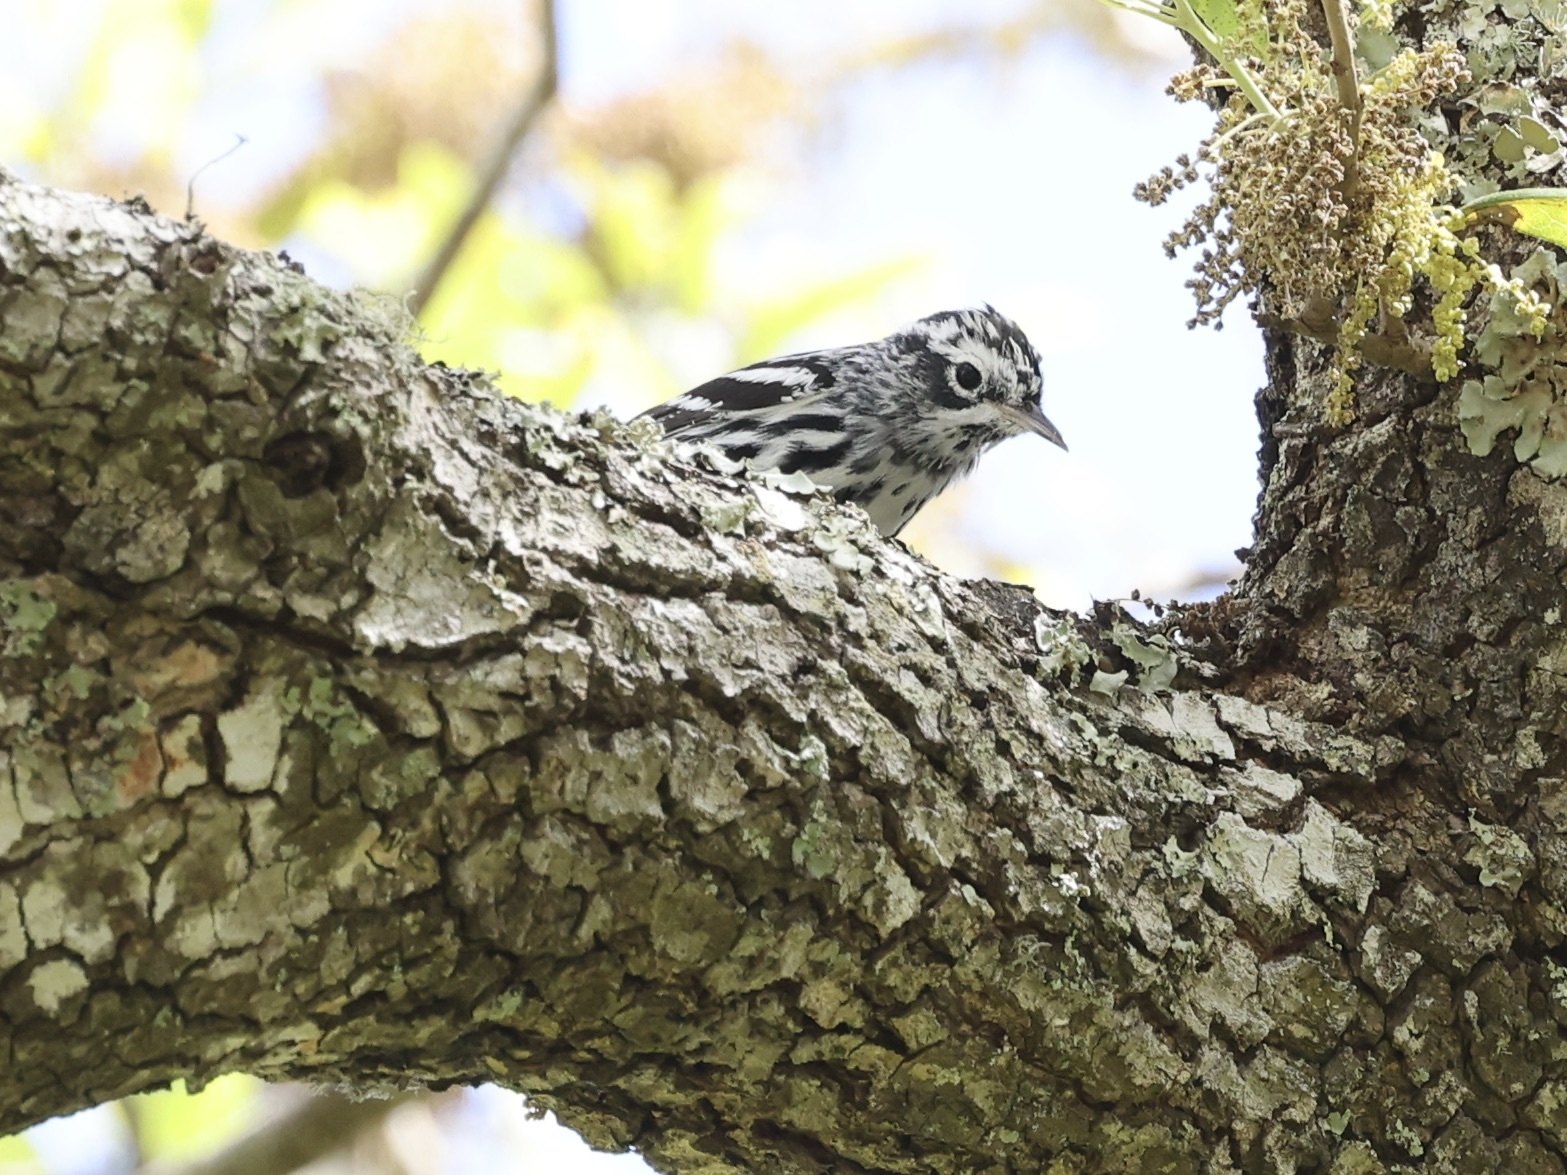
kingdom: Animalia
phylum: Chordata
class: Aves
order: Passeriformes
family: Parulidae
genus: Mniotilta
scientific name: Mniotilta varia
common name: Black-and-white warbler
